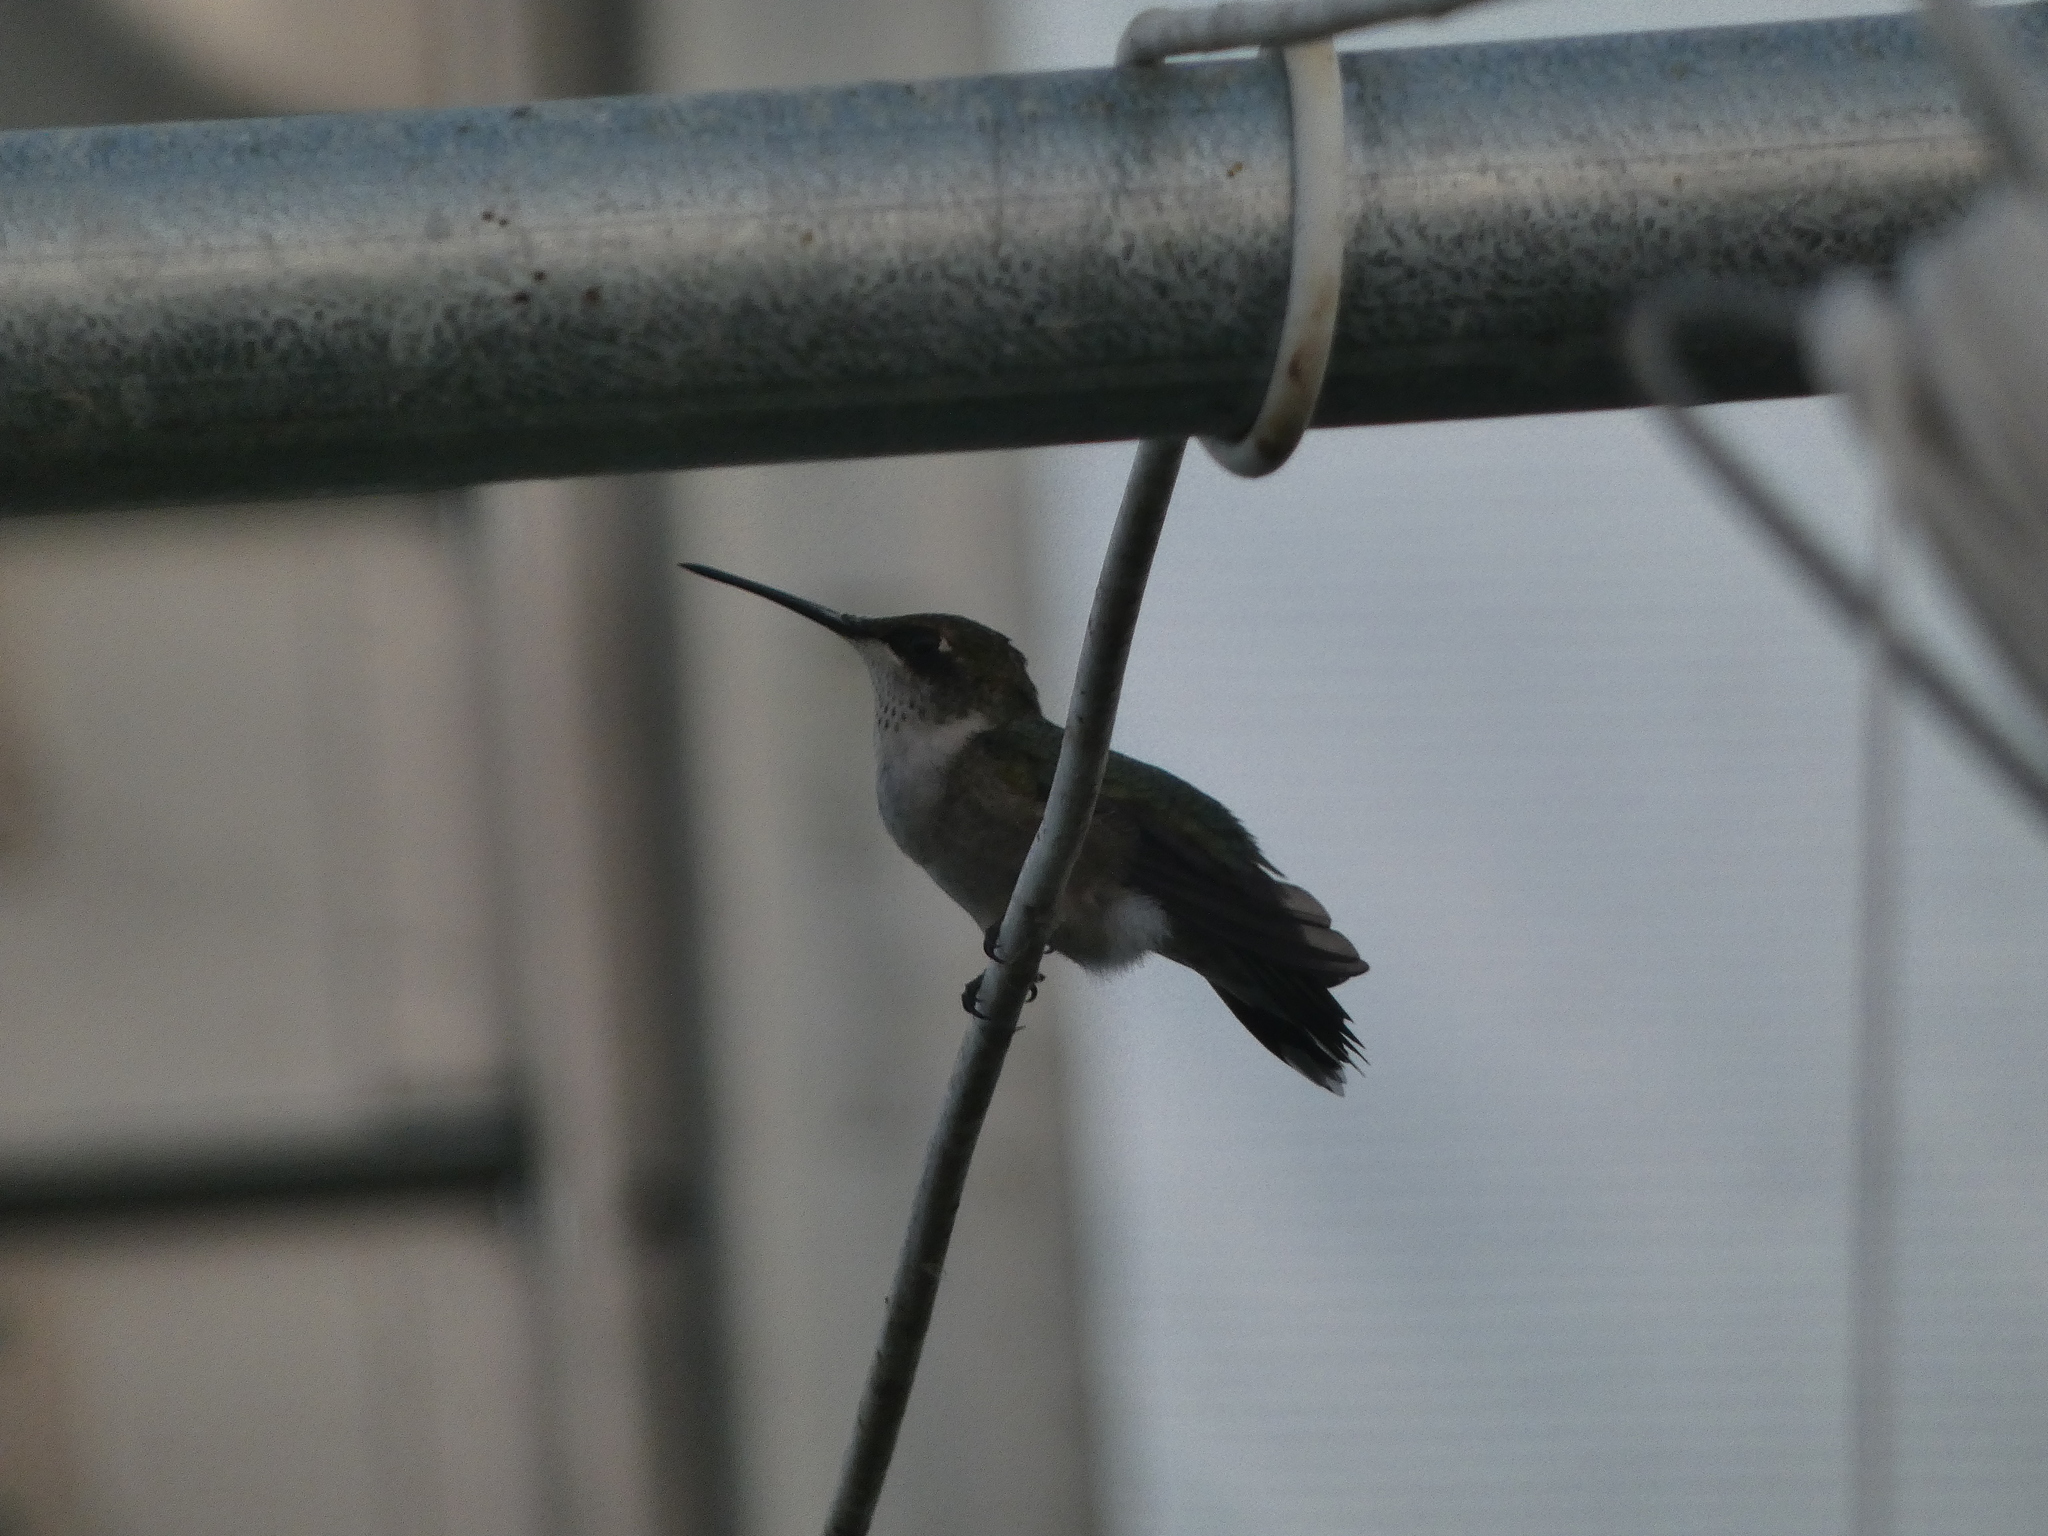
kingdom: Animalia
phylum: Chordata
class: Aves
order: Apodiformes
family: Trochilidae
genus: Archilochus
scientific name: Archilochus colubris
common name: Ruby-throated hummingbird
